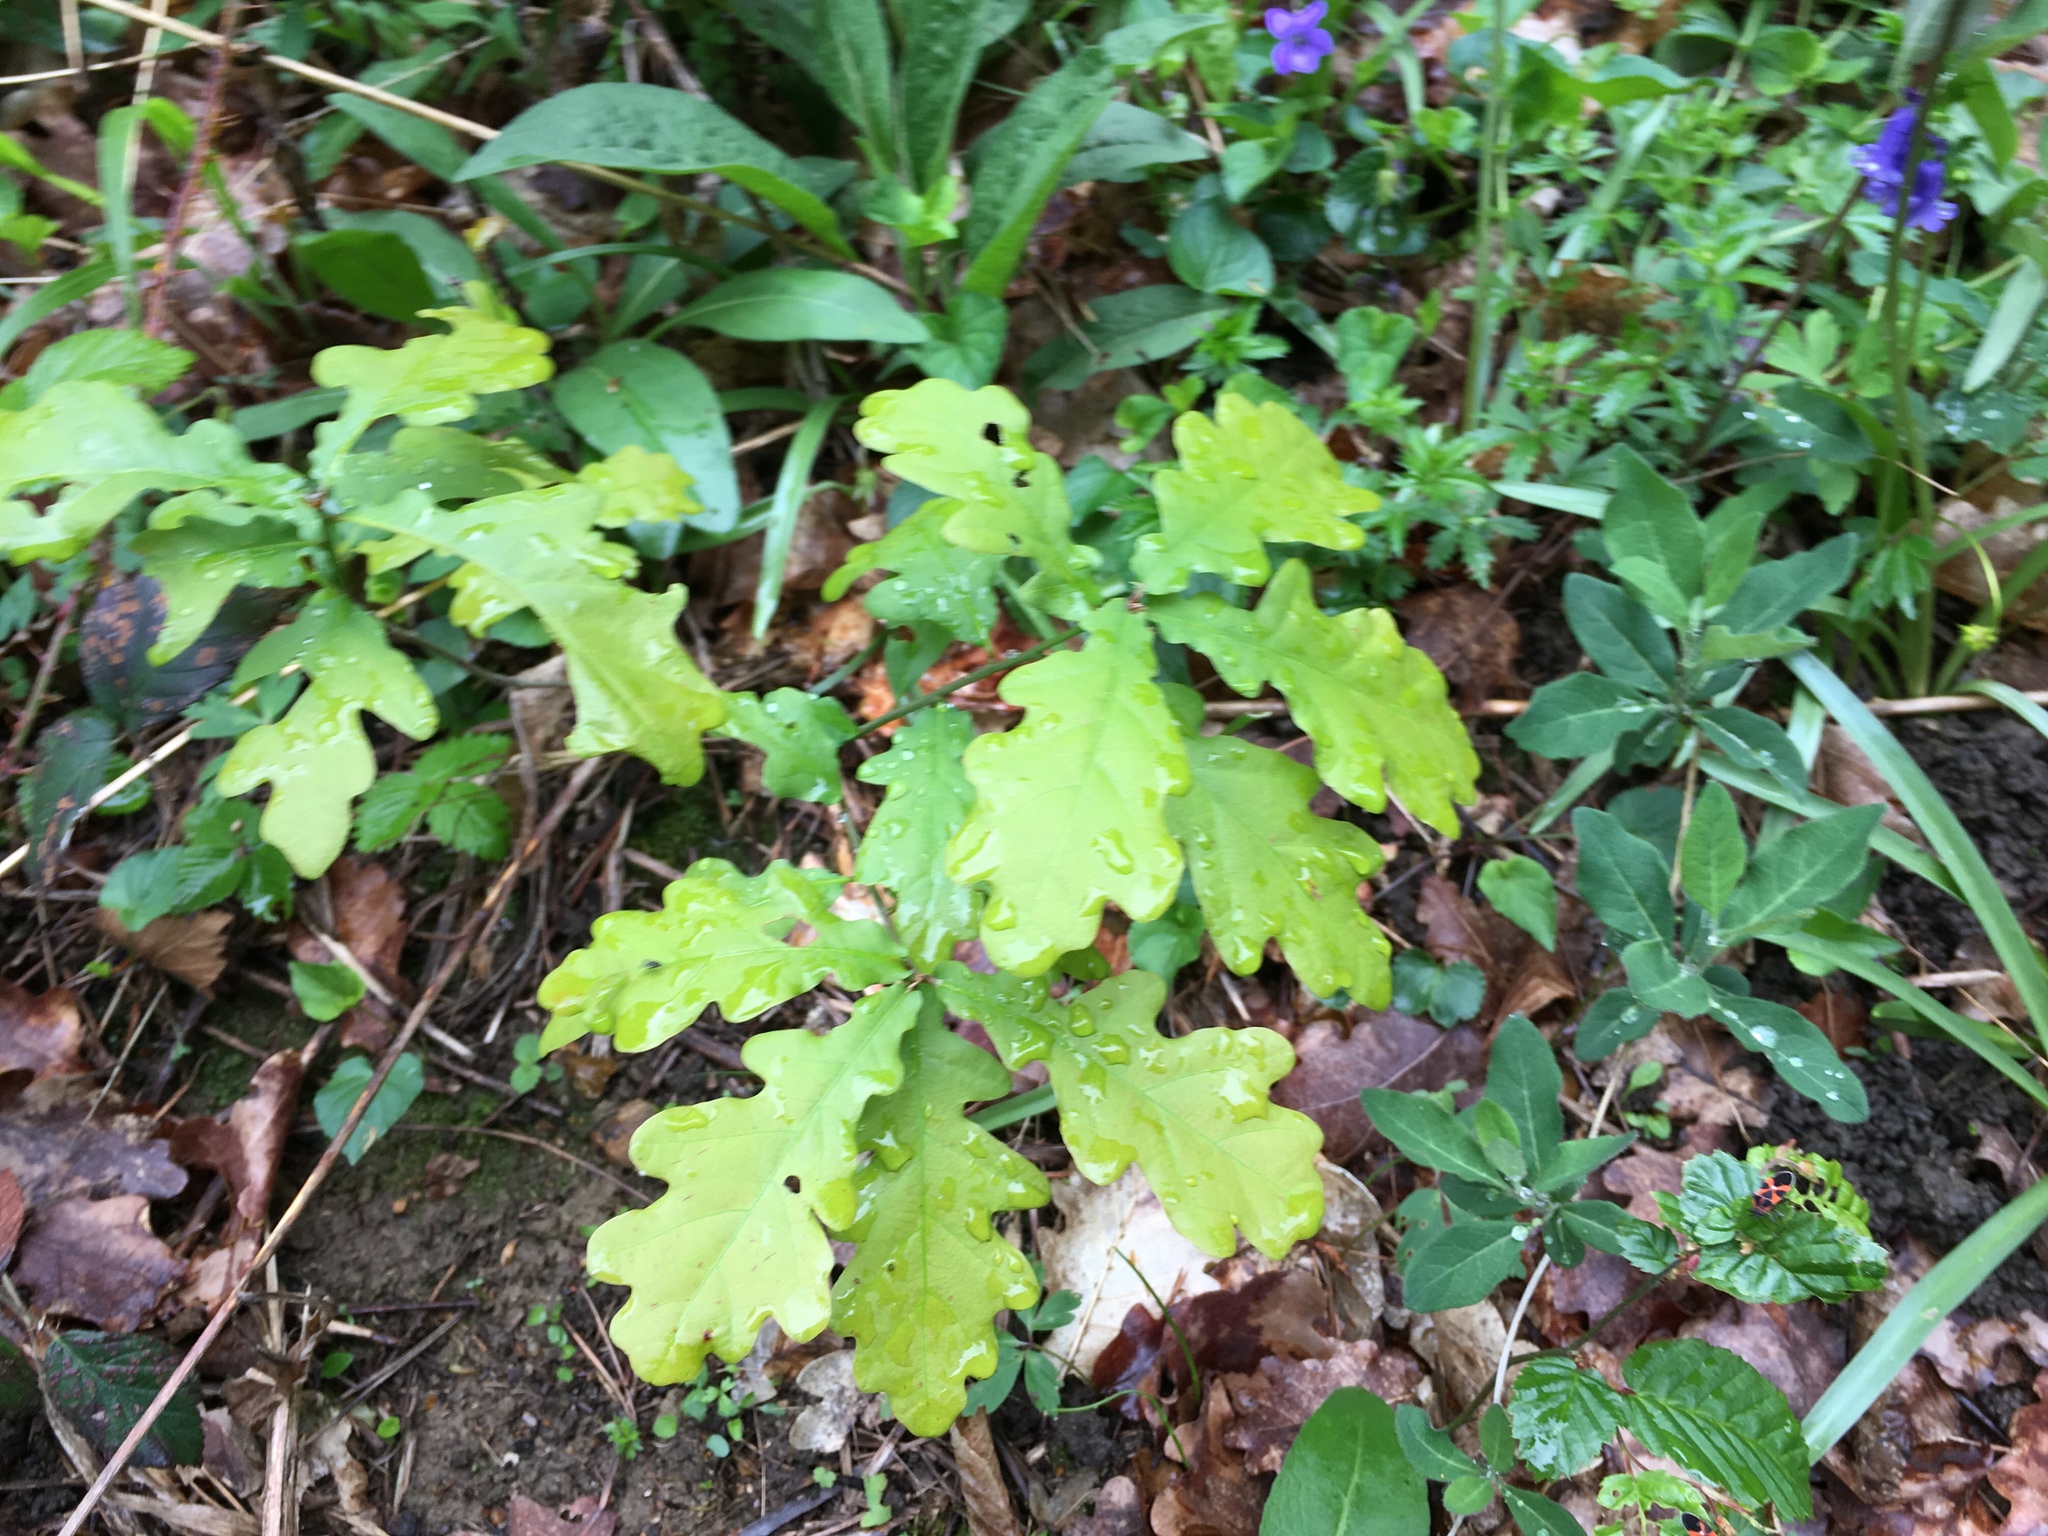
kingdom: Plantae
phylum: Tracheophyta
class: Magnoliopsida
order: Fagales
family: Fagaceae
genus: Quercus
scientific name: Quercus robur
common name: Pedunculate oak
